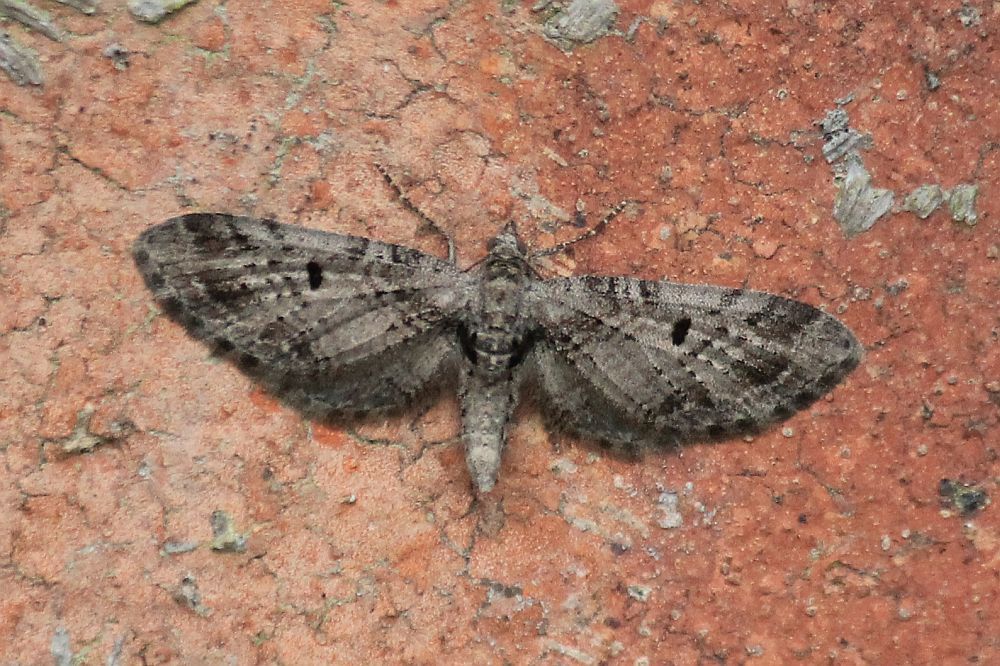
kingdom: Animalia
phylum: Arthropoda
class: Insecta
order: Lepidoptera
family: Geometridae
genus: Eupithecia
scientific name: Eupithecia exiguata
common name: Mottled pug
